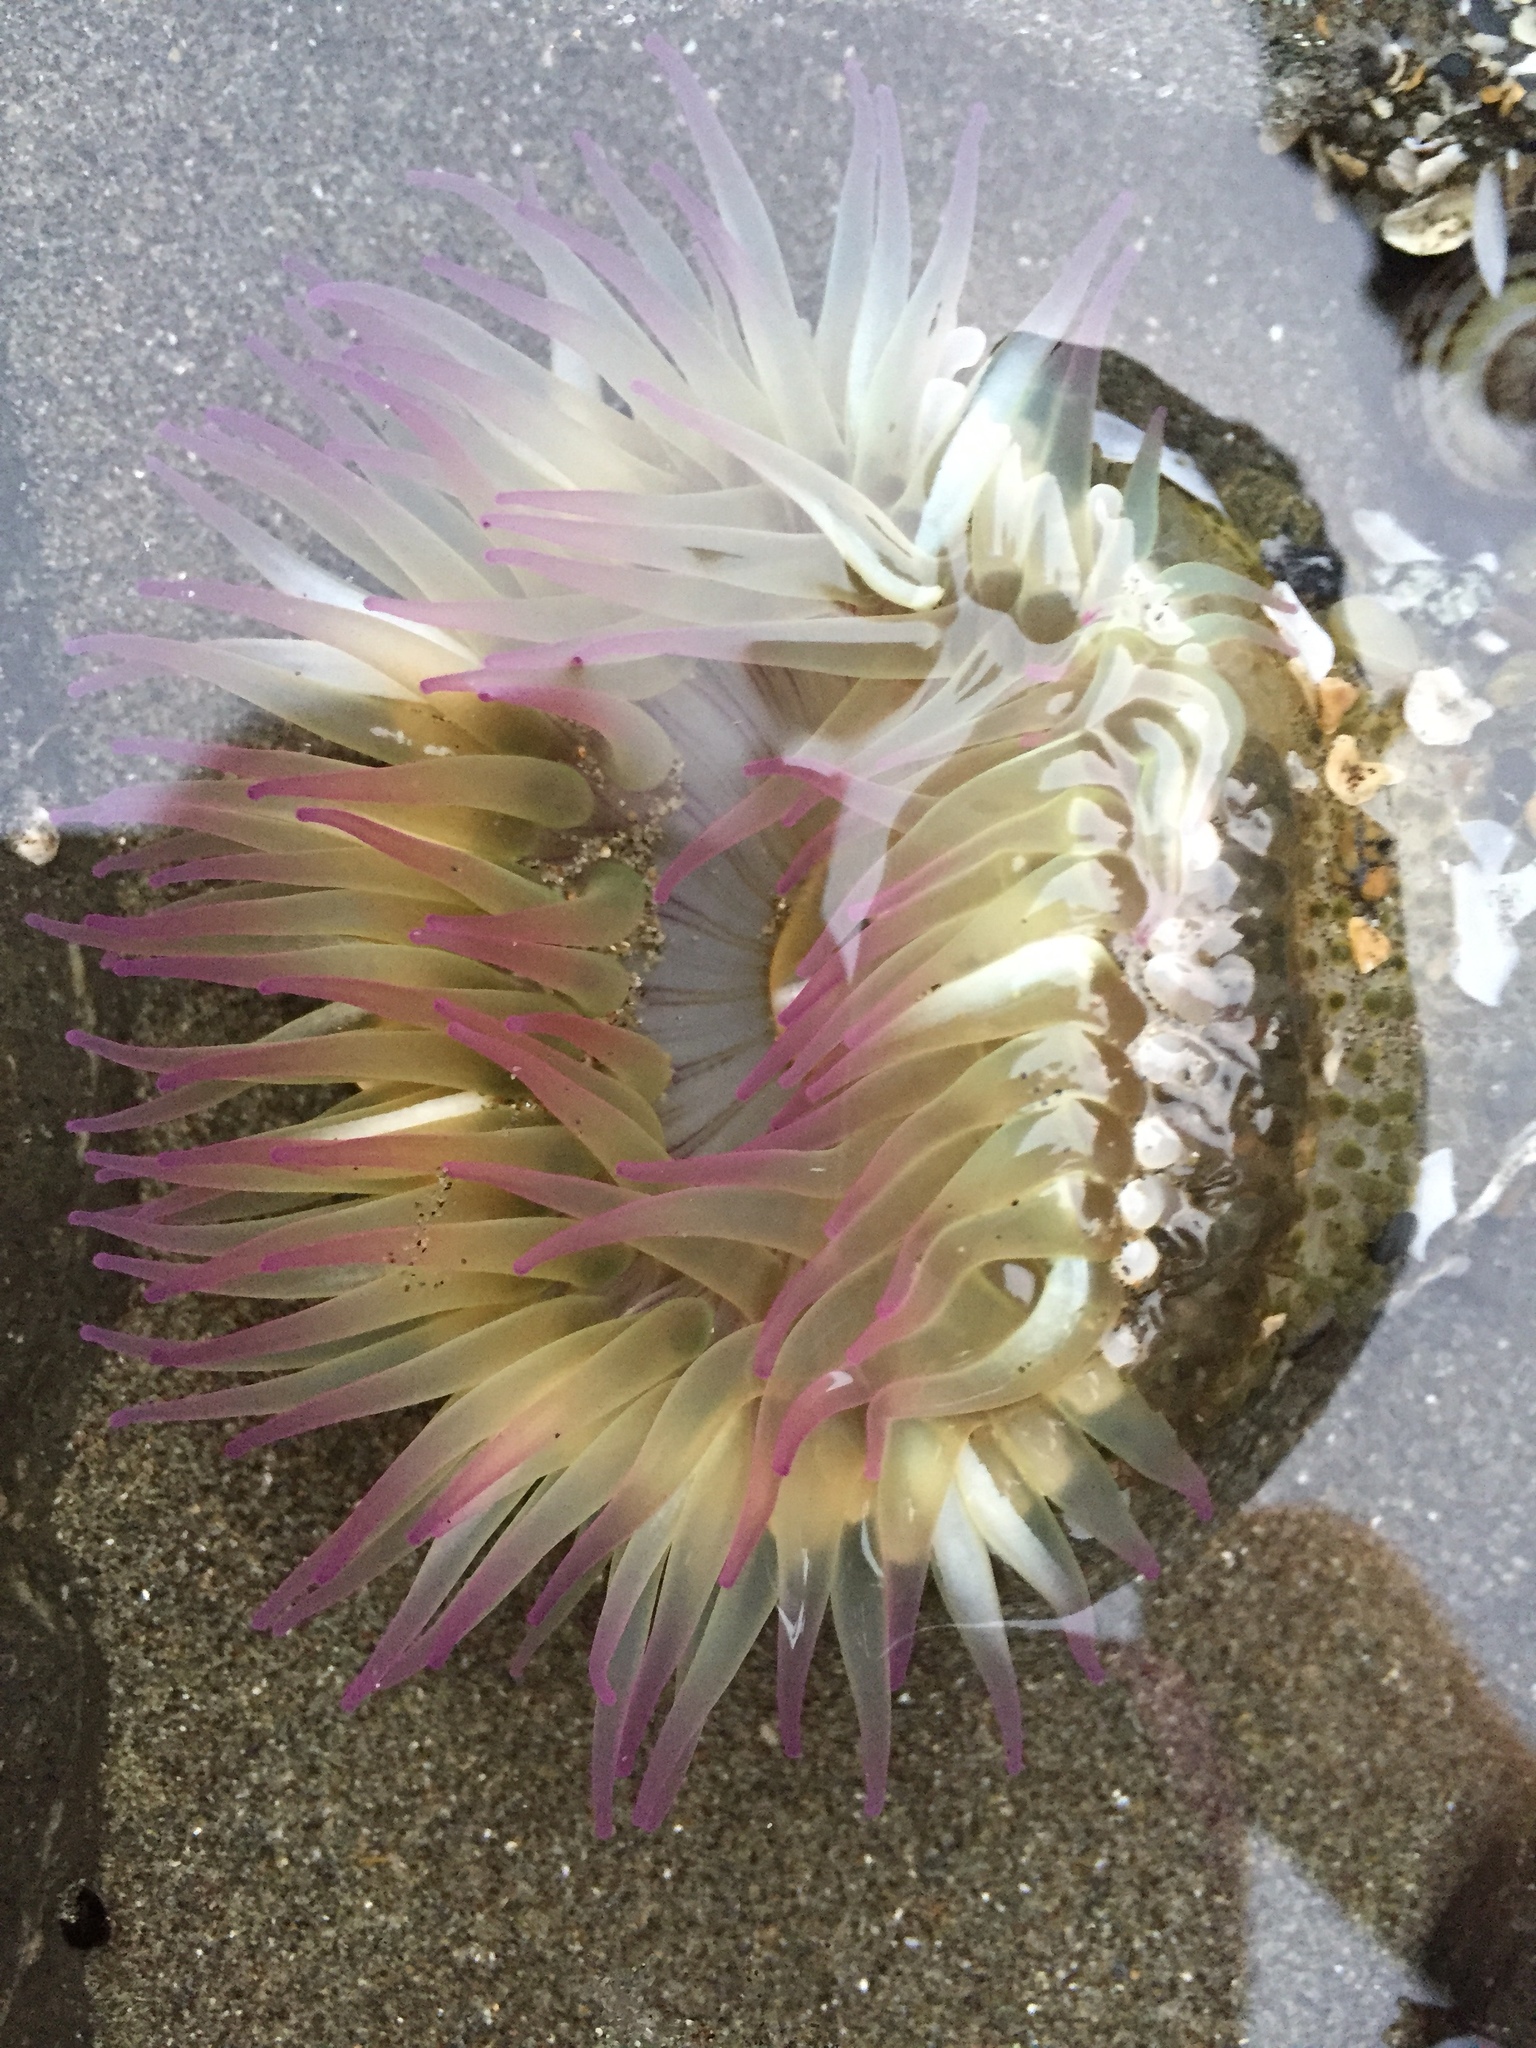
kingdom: Animalia
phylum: Cnidaria
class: Anthozoa
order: Actiniaria
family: Actiniidae
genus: Anthopleura
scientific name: Anthopleura elegantissima
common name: Clonal anemone
